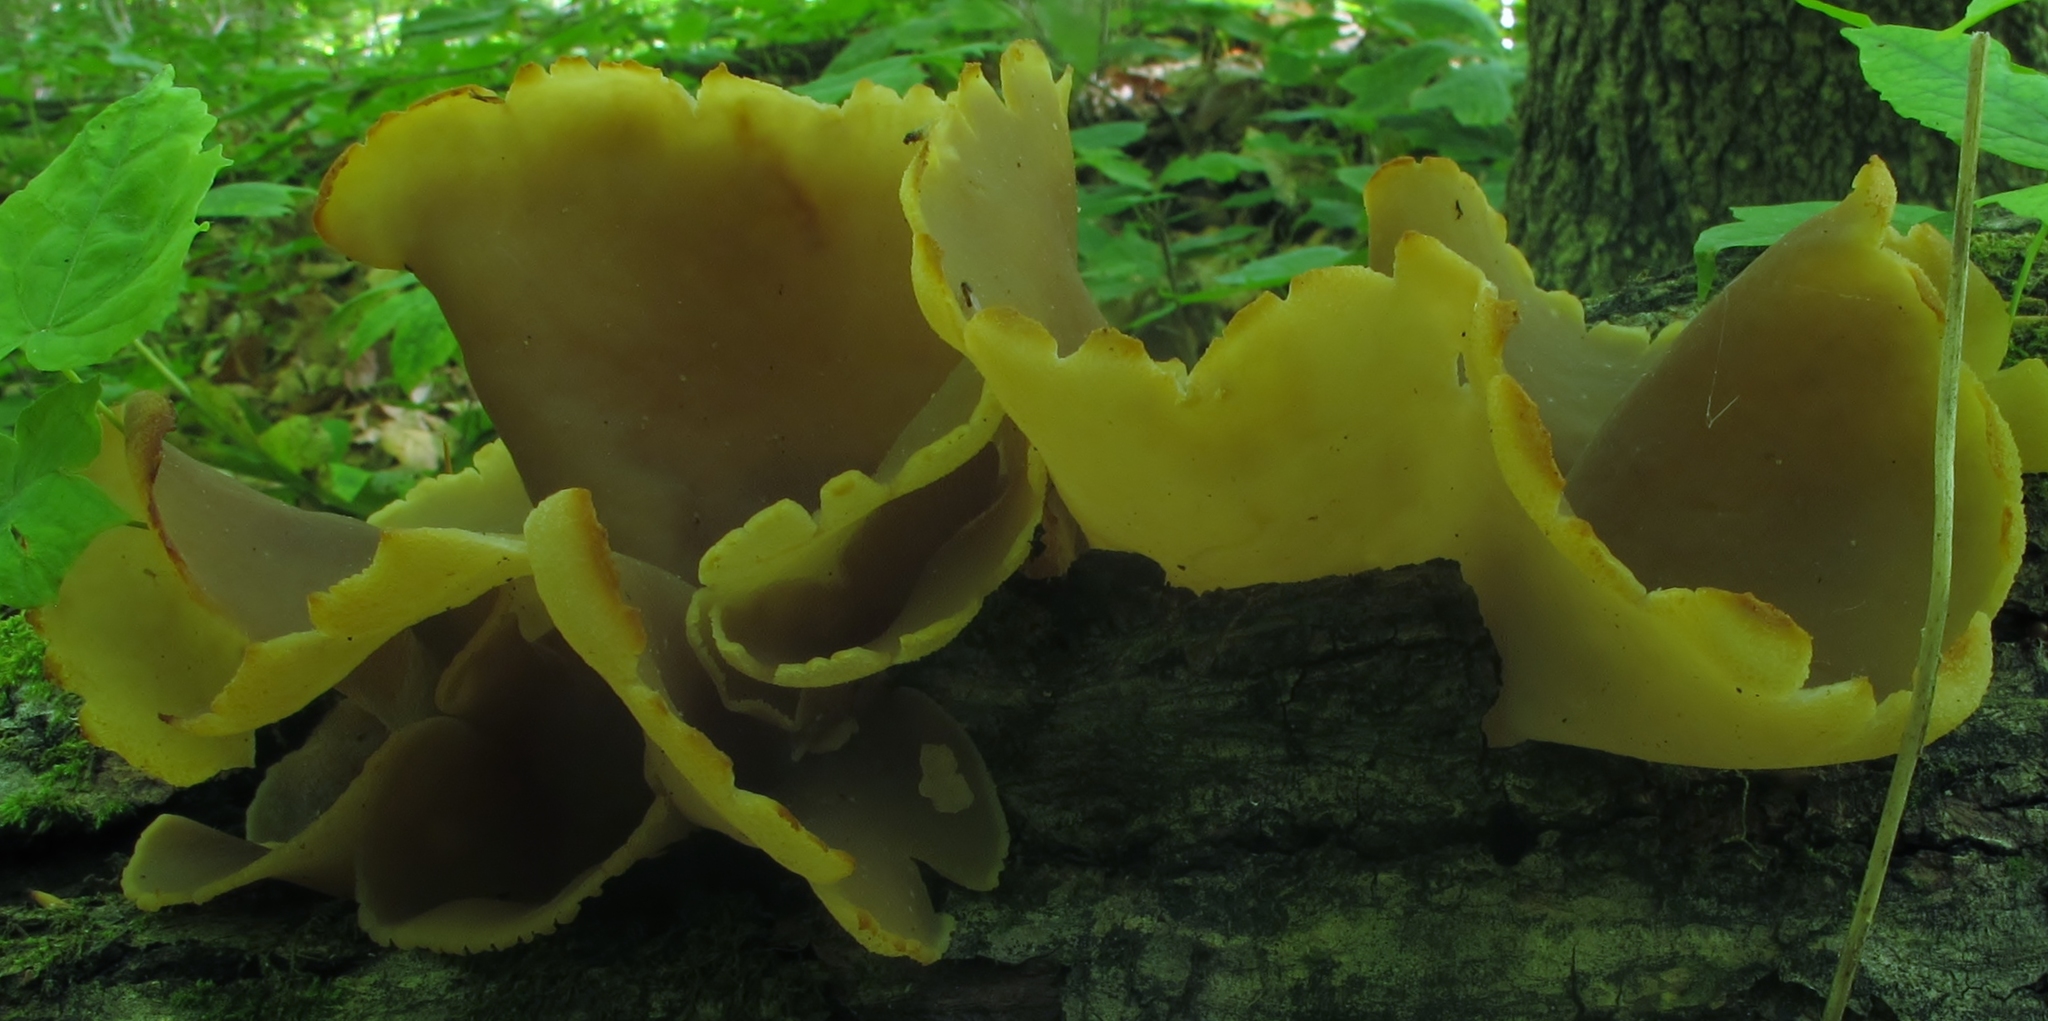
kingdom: Fungi
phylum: Ascomycota
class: Pezizomycetes
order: Pezizales
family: Pezizaceae
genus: Peziza
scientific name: Peziza varia
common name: Layered cup
